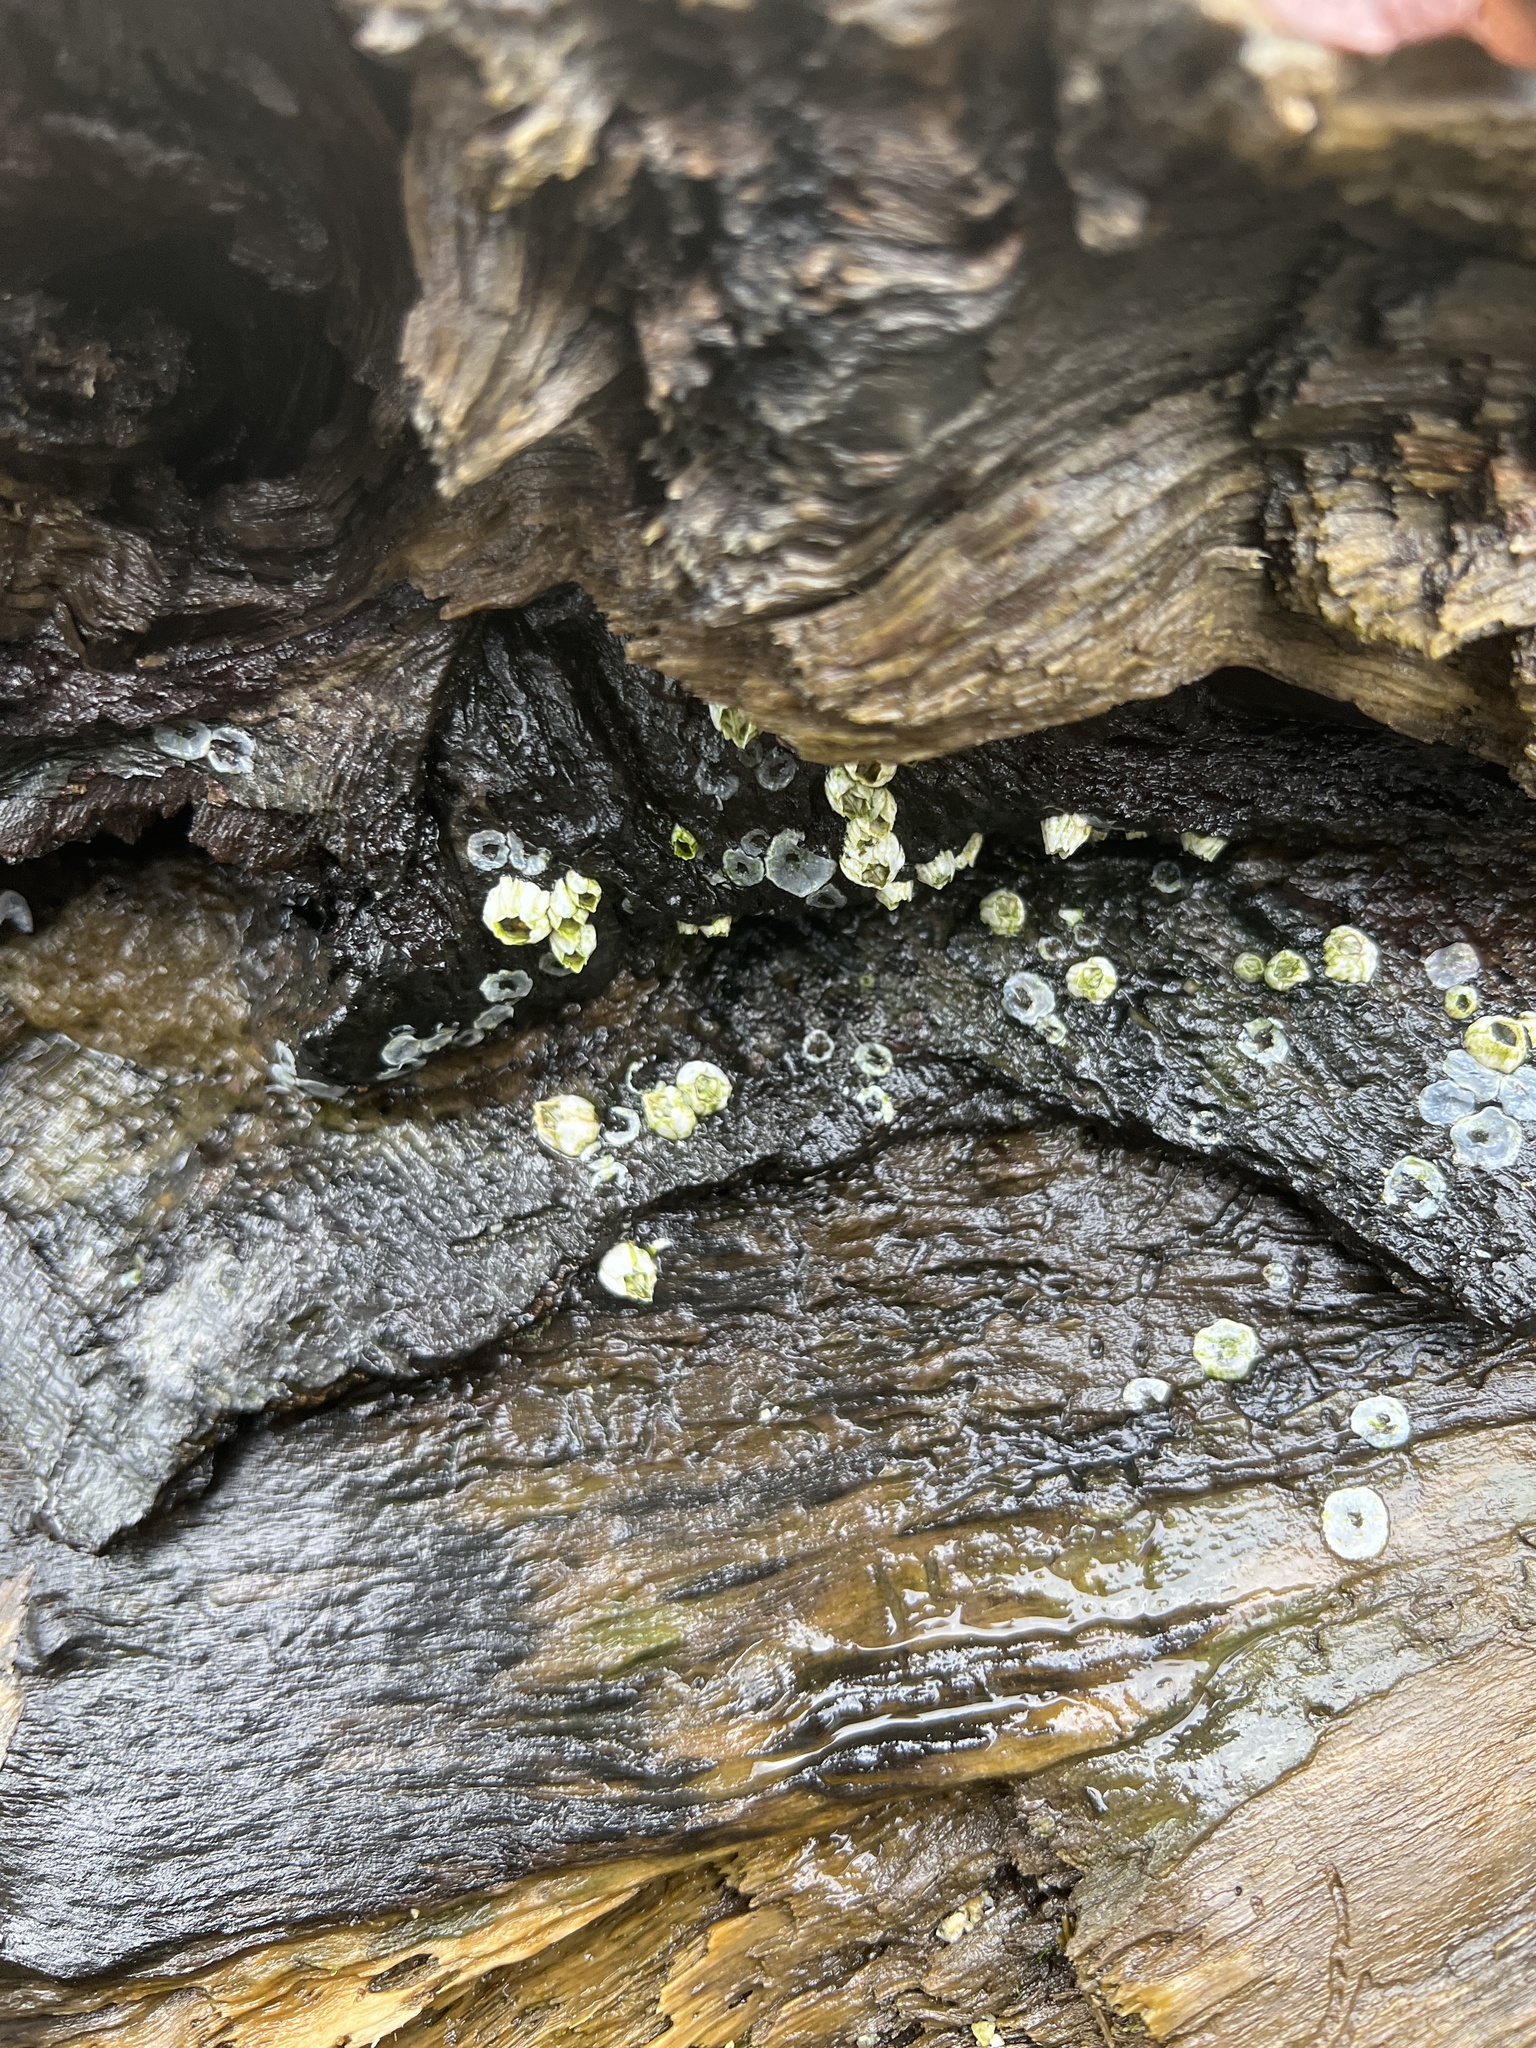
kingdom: Animalia
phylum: Arthropoda
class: Maxillopoda
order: Sessilia
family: Balanidae
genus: Balanus
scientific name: Balanus glandula
